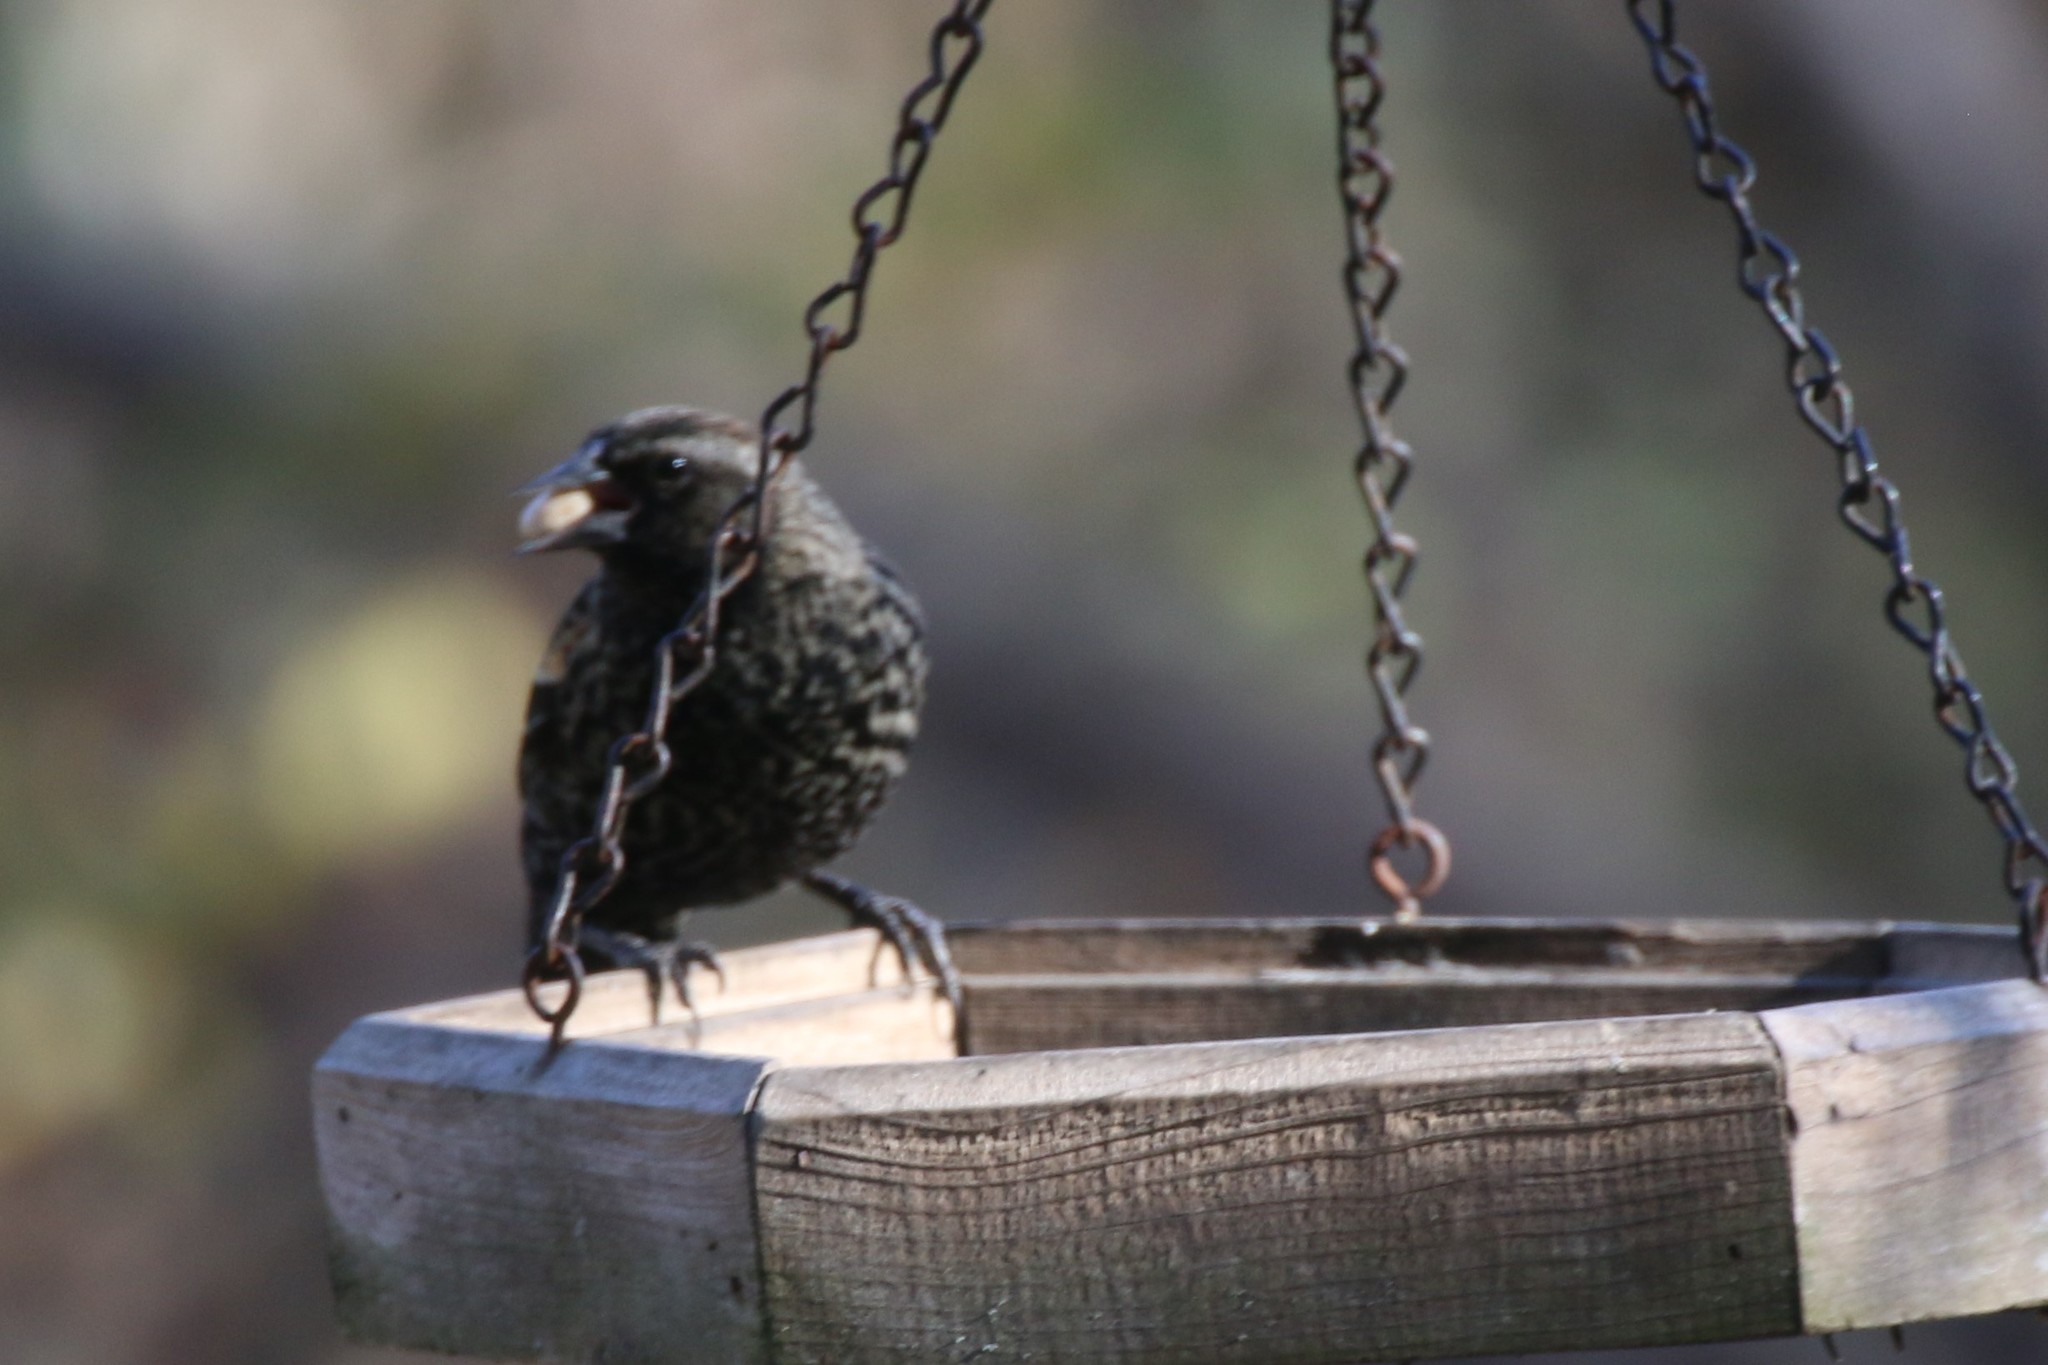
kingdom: Animalia
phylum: Chordata
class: Aves
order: Passeriformes
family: Icteridae
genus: Agelaius
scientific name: Agelaius phoeniceus
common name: Red-winged blackbird
